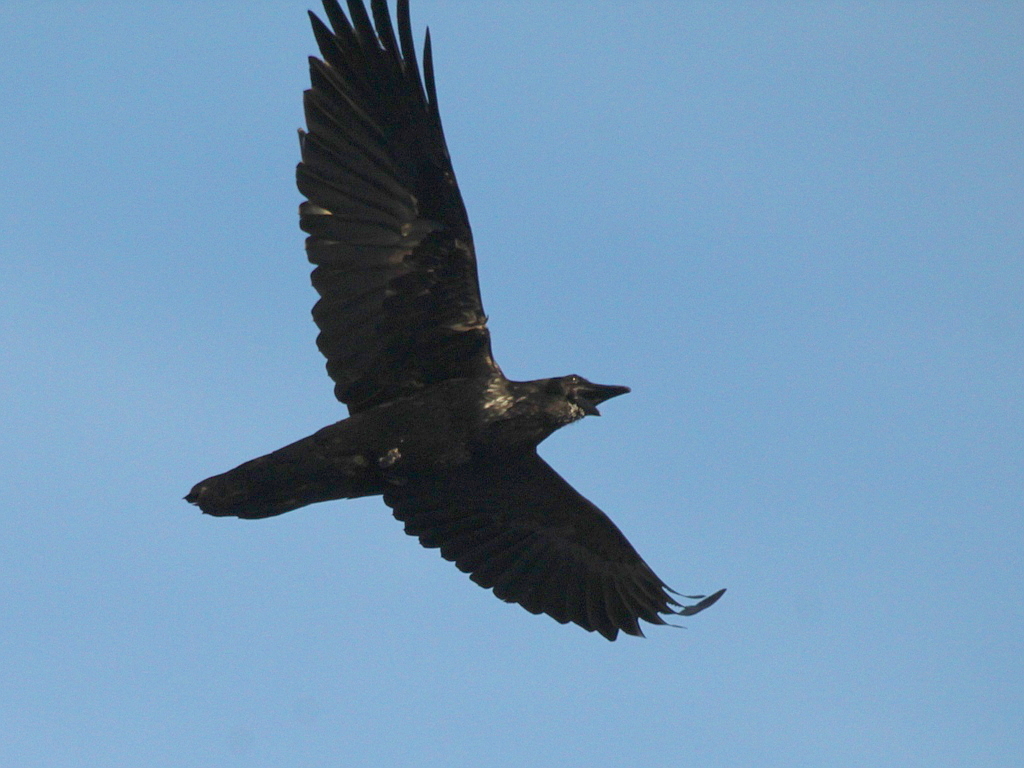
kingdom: Animalia
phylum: Chordata
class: Aves
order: Passeriformes
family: Corvidae
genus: Corvus
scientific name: Corvus corax
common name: Common raven
